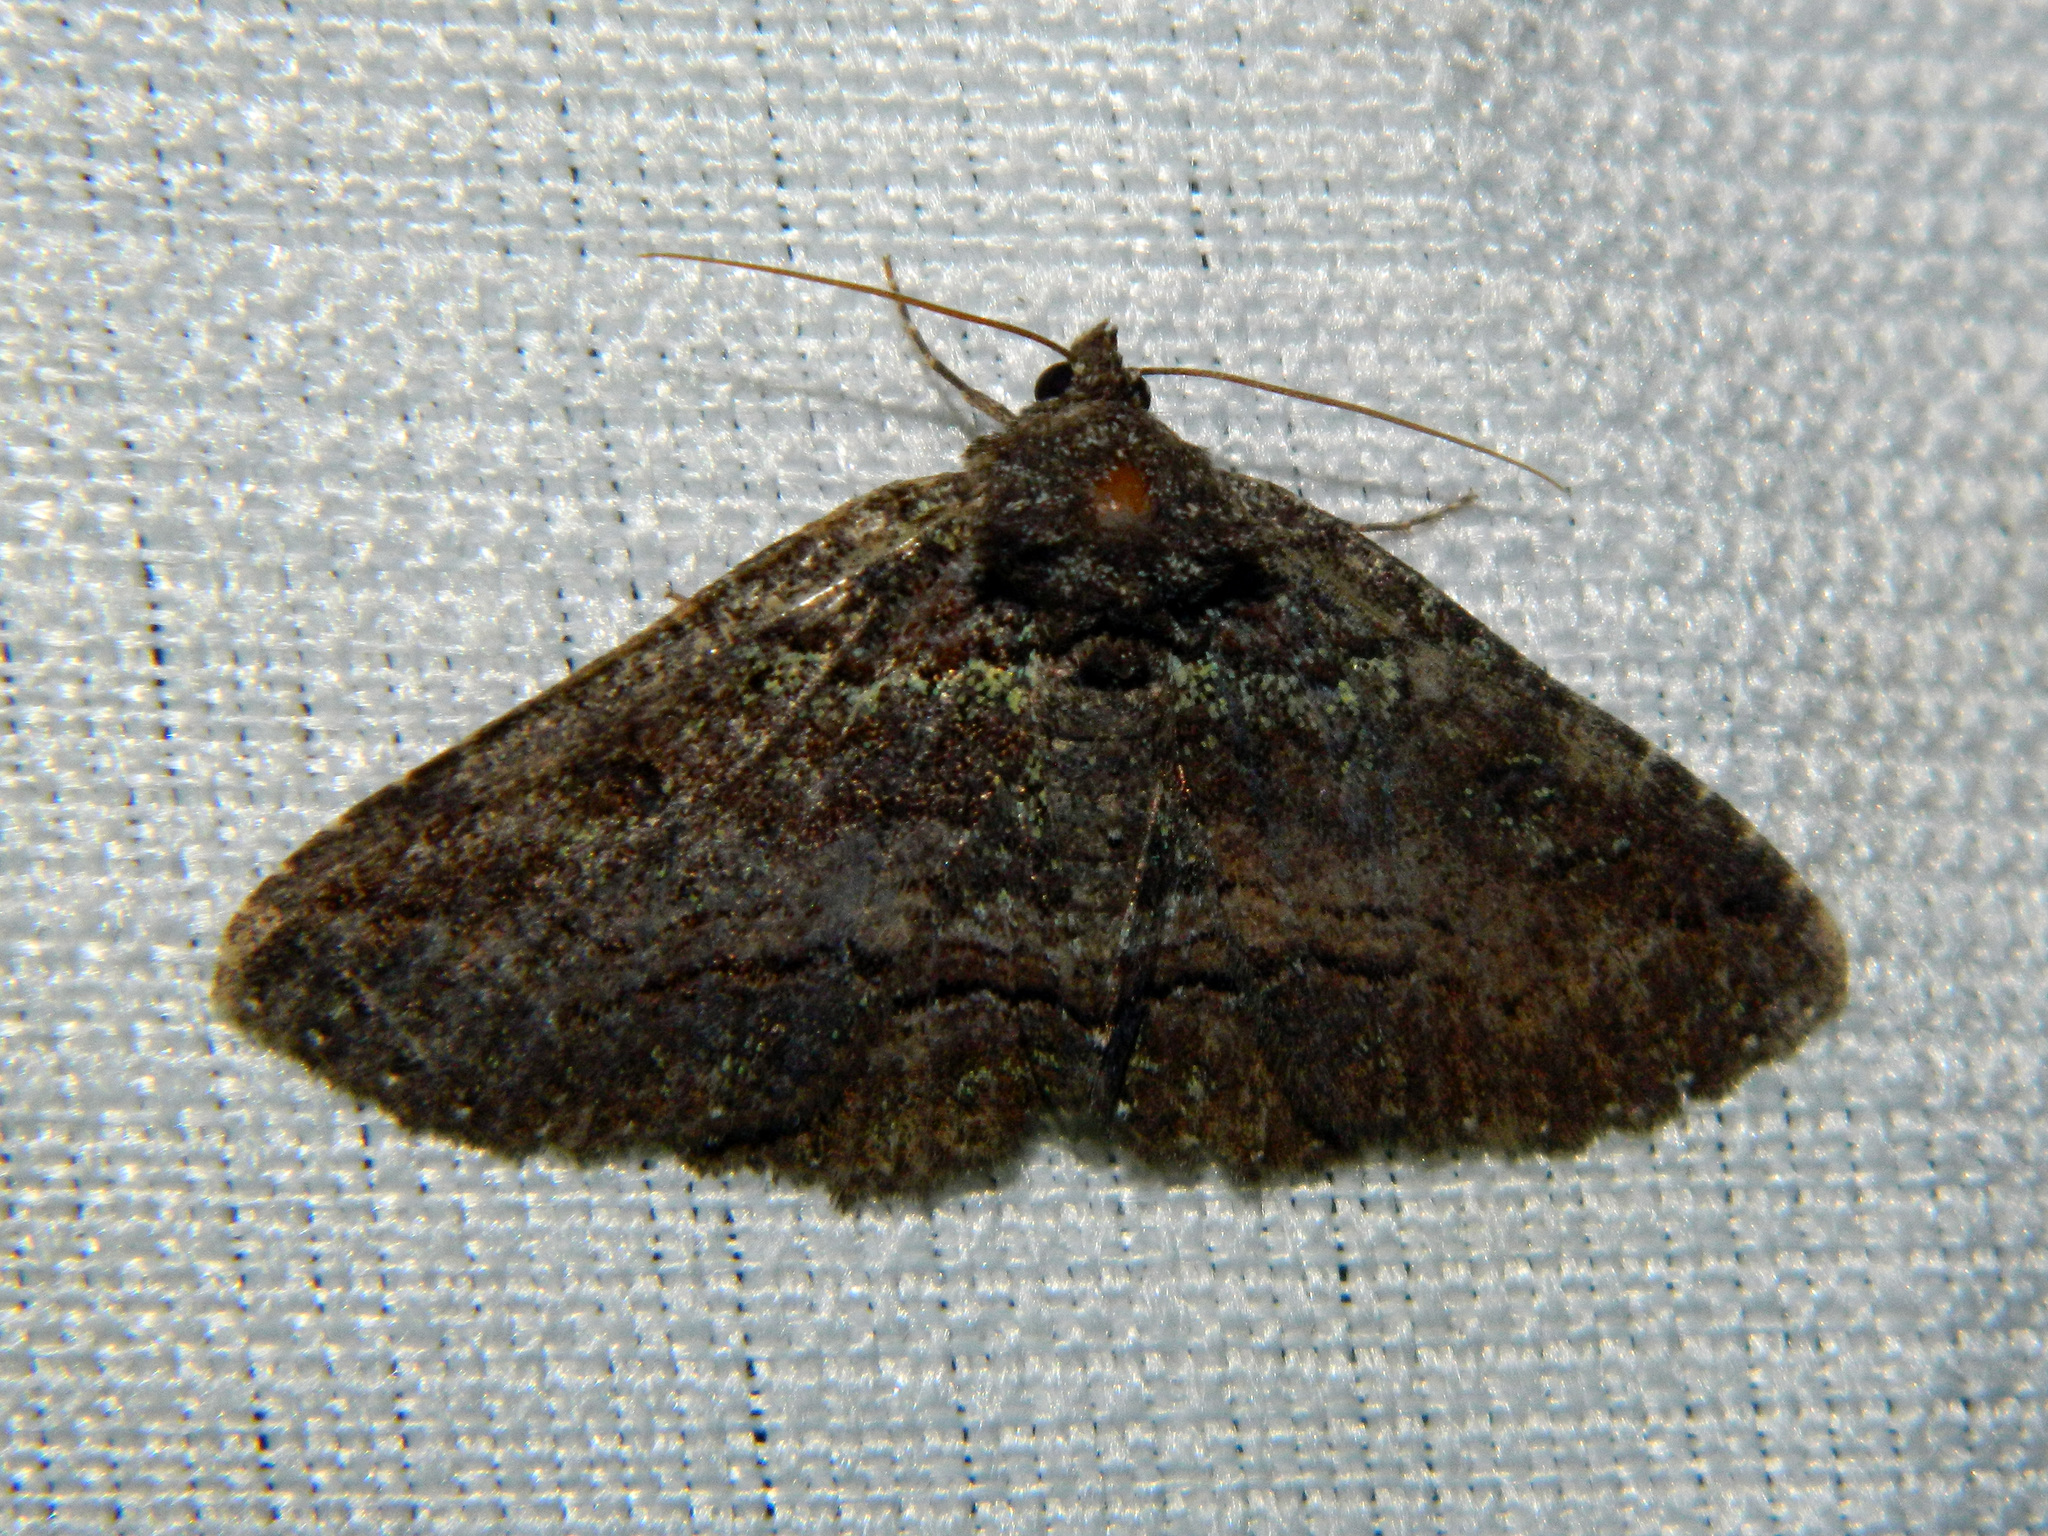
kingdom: Animalia
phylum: Arthropoda
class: Insecta
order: Lepidoptera
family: Erebidae
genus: Zale
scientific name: Zale aeruginosa
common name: Green-dusted zale moth
